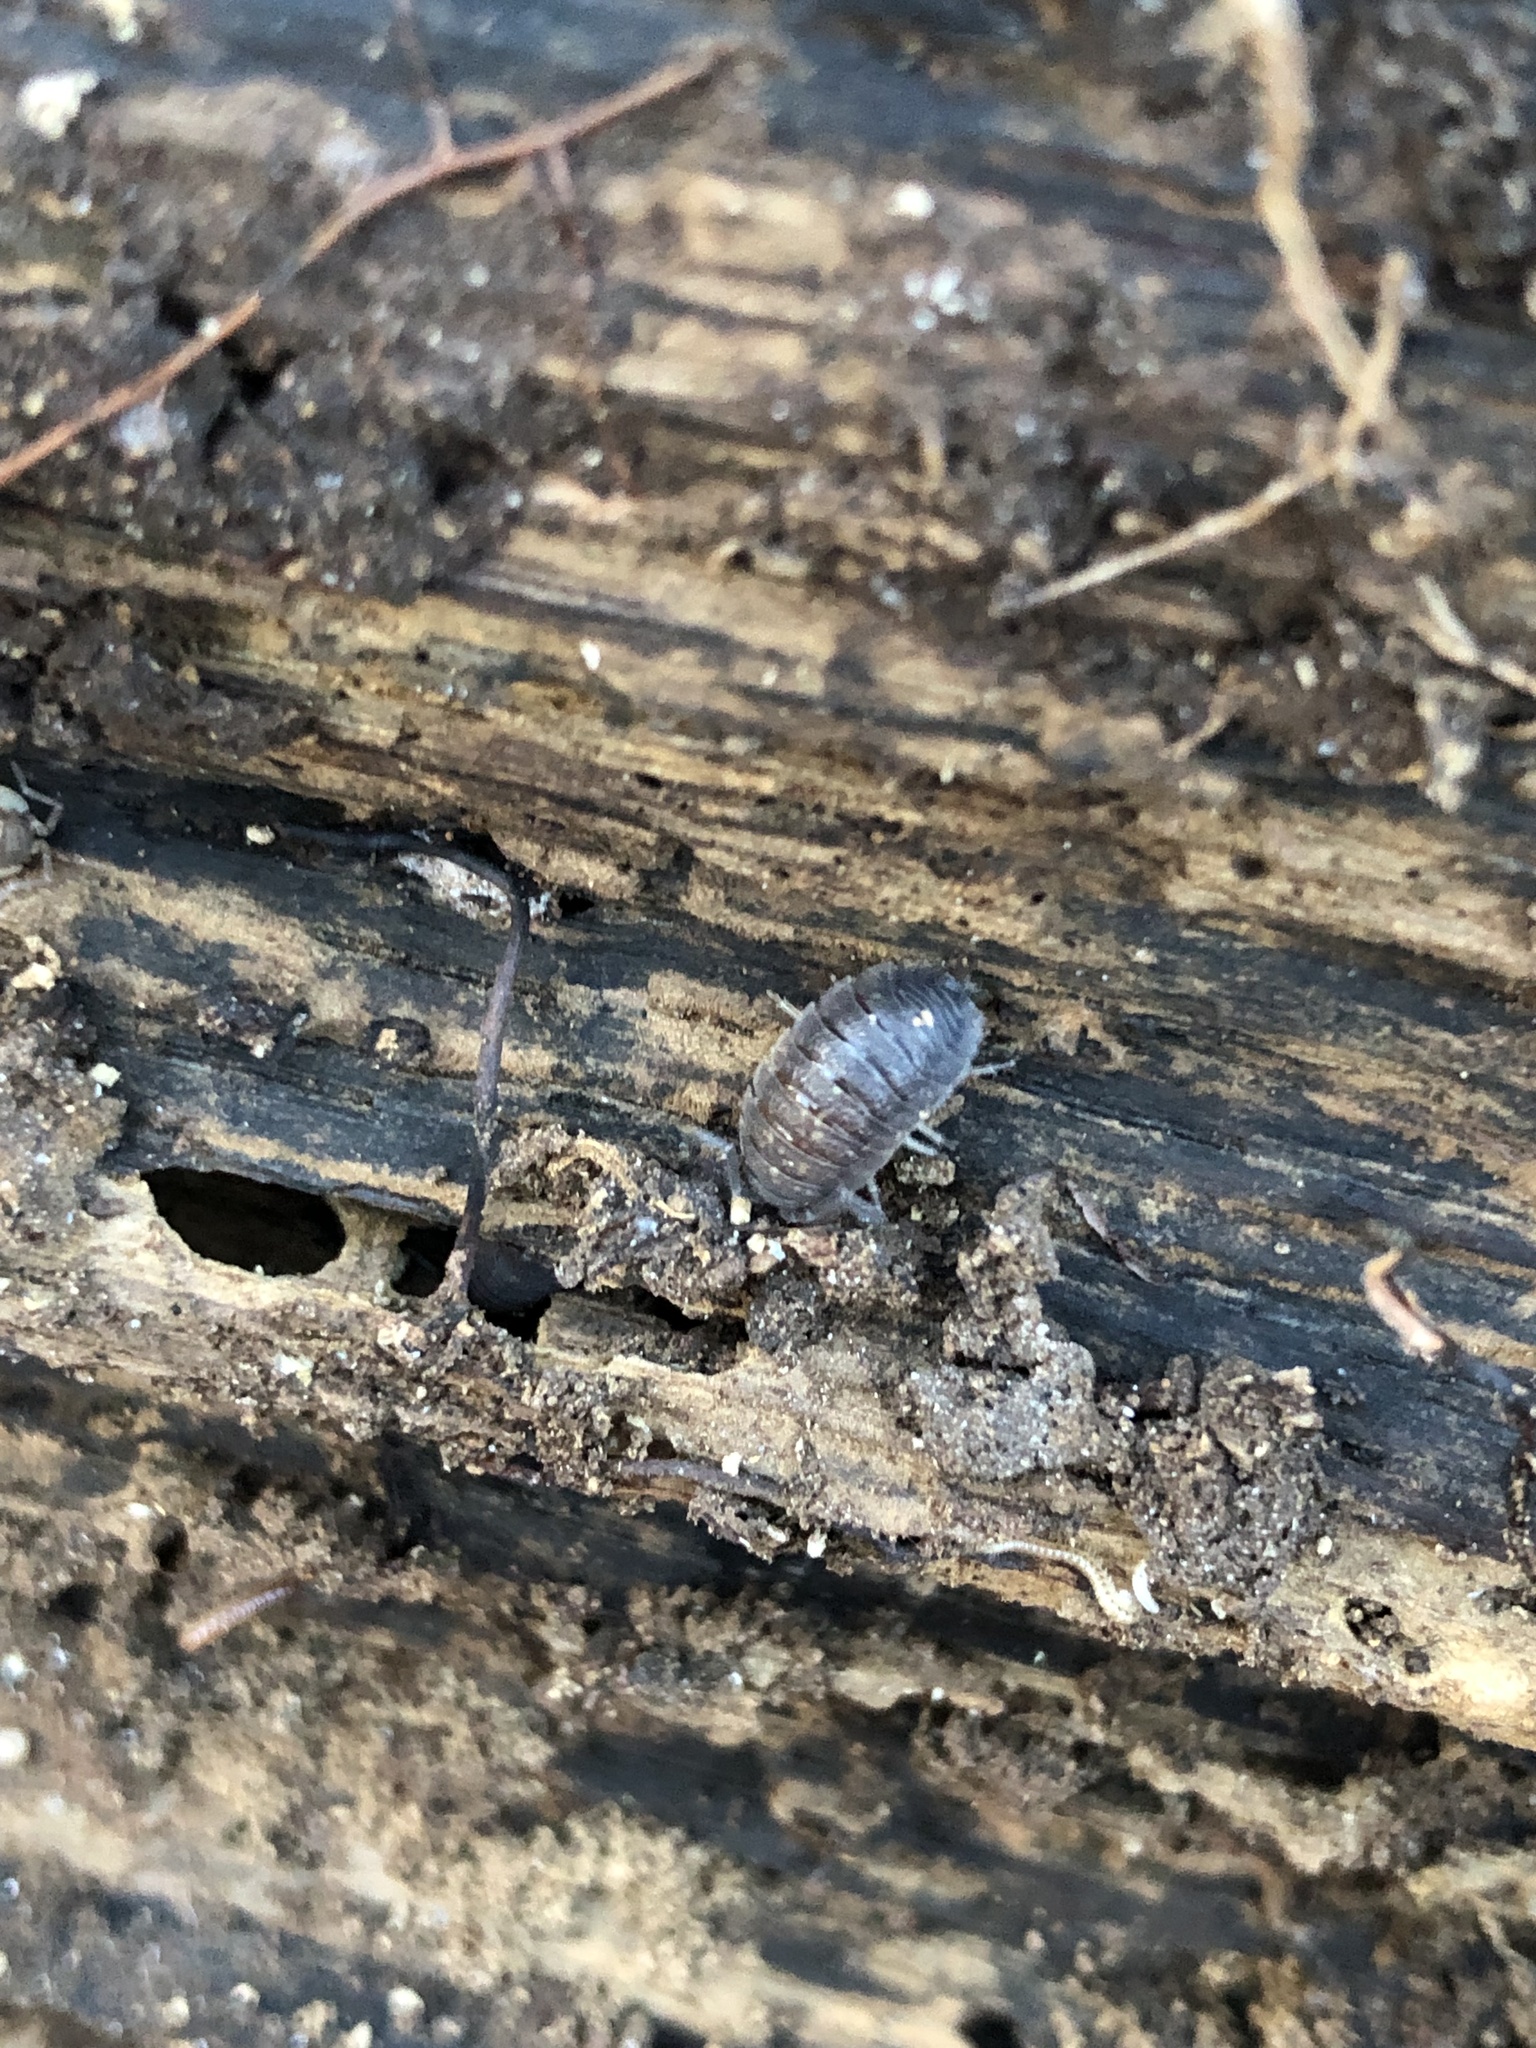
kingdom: Animalia
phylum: Arthropoda
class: Malacostraca
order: Isopoda
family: Porcellionidae
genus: Porcellio
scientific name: Porcellio scaber
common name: Common rough woodlouse
